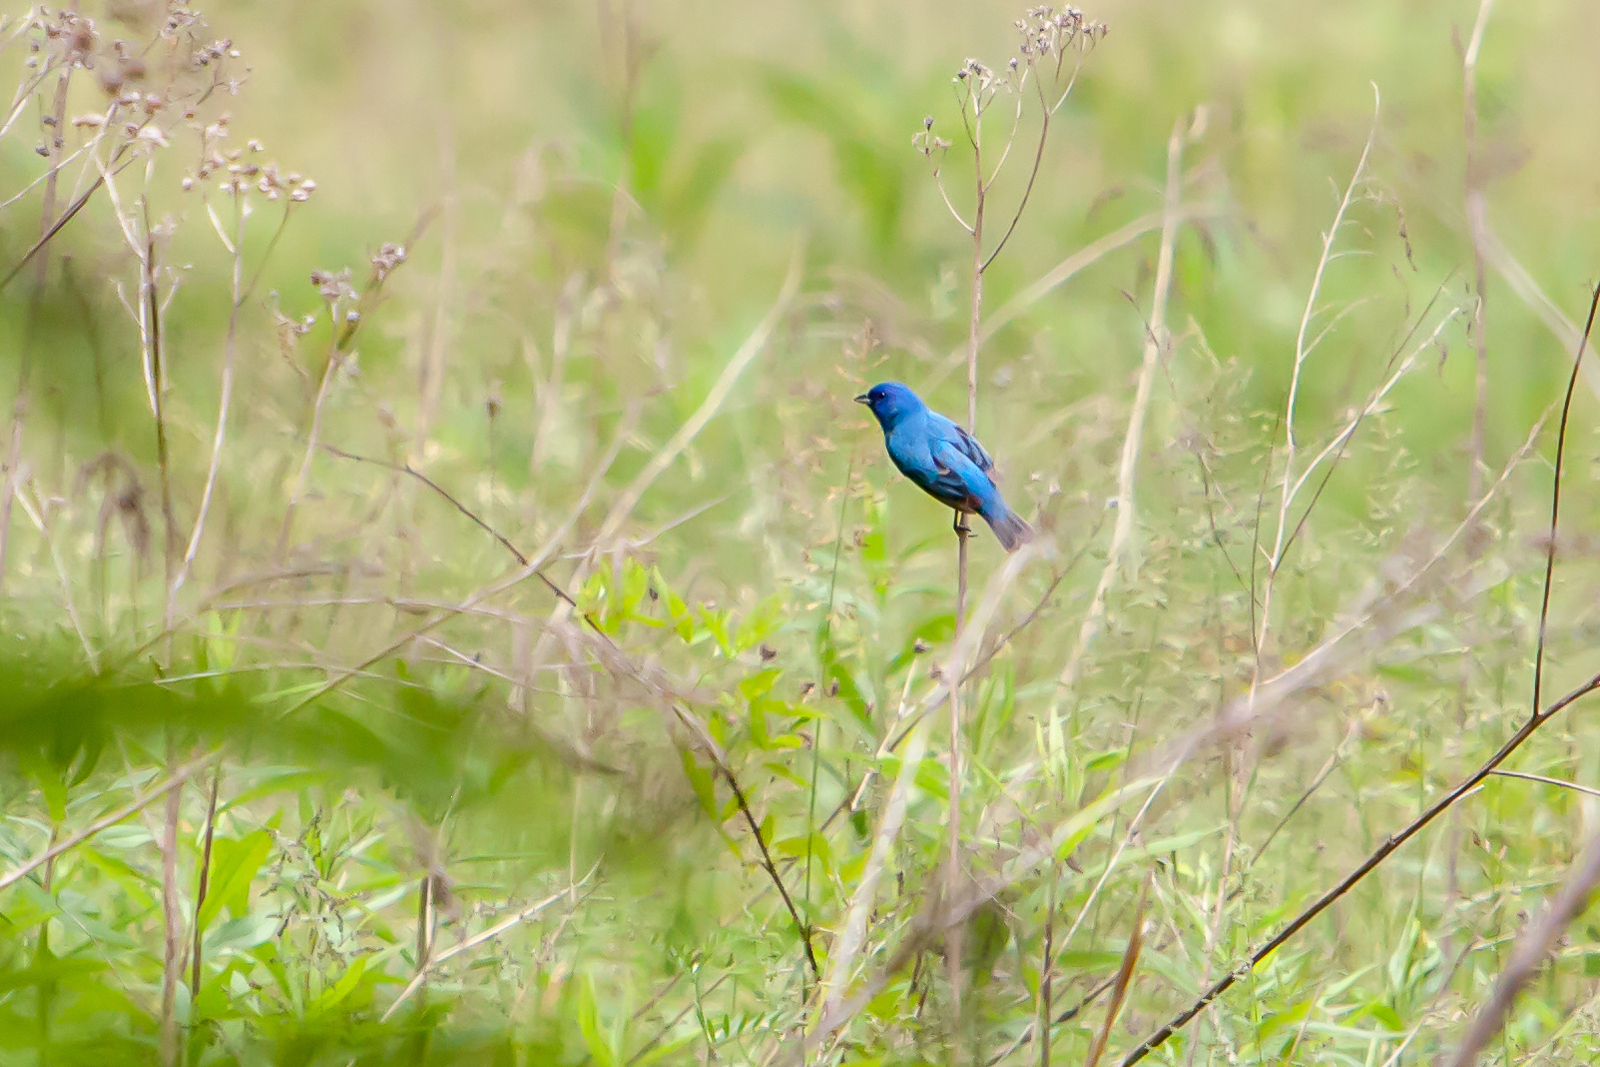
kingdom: Animalia
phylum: Chordata
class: Aves
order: Passeriformes
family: Cardinalidae
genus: Passerina
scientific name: Passerina cyanea
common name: Indigo bunting
